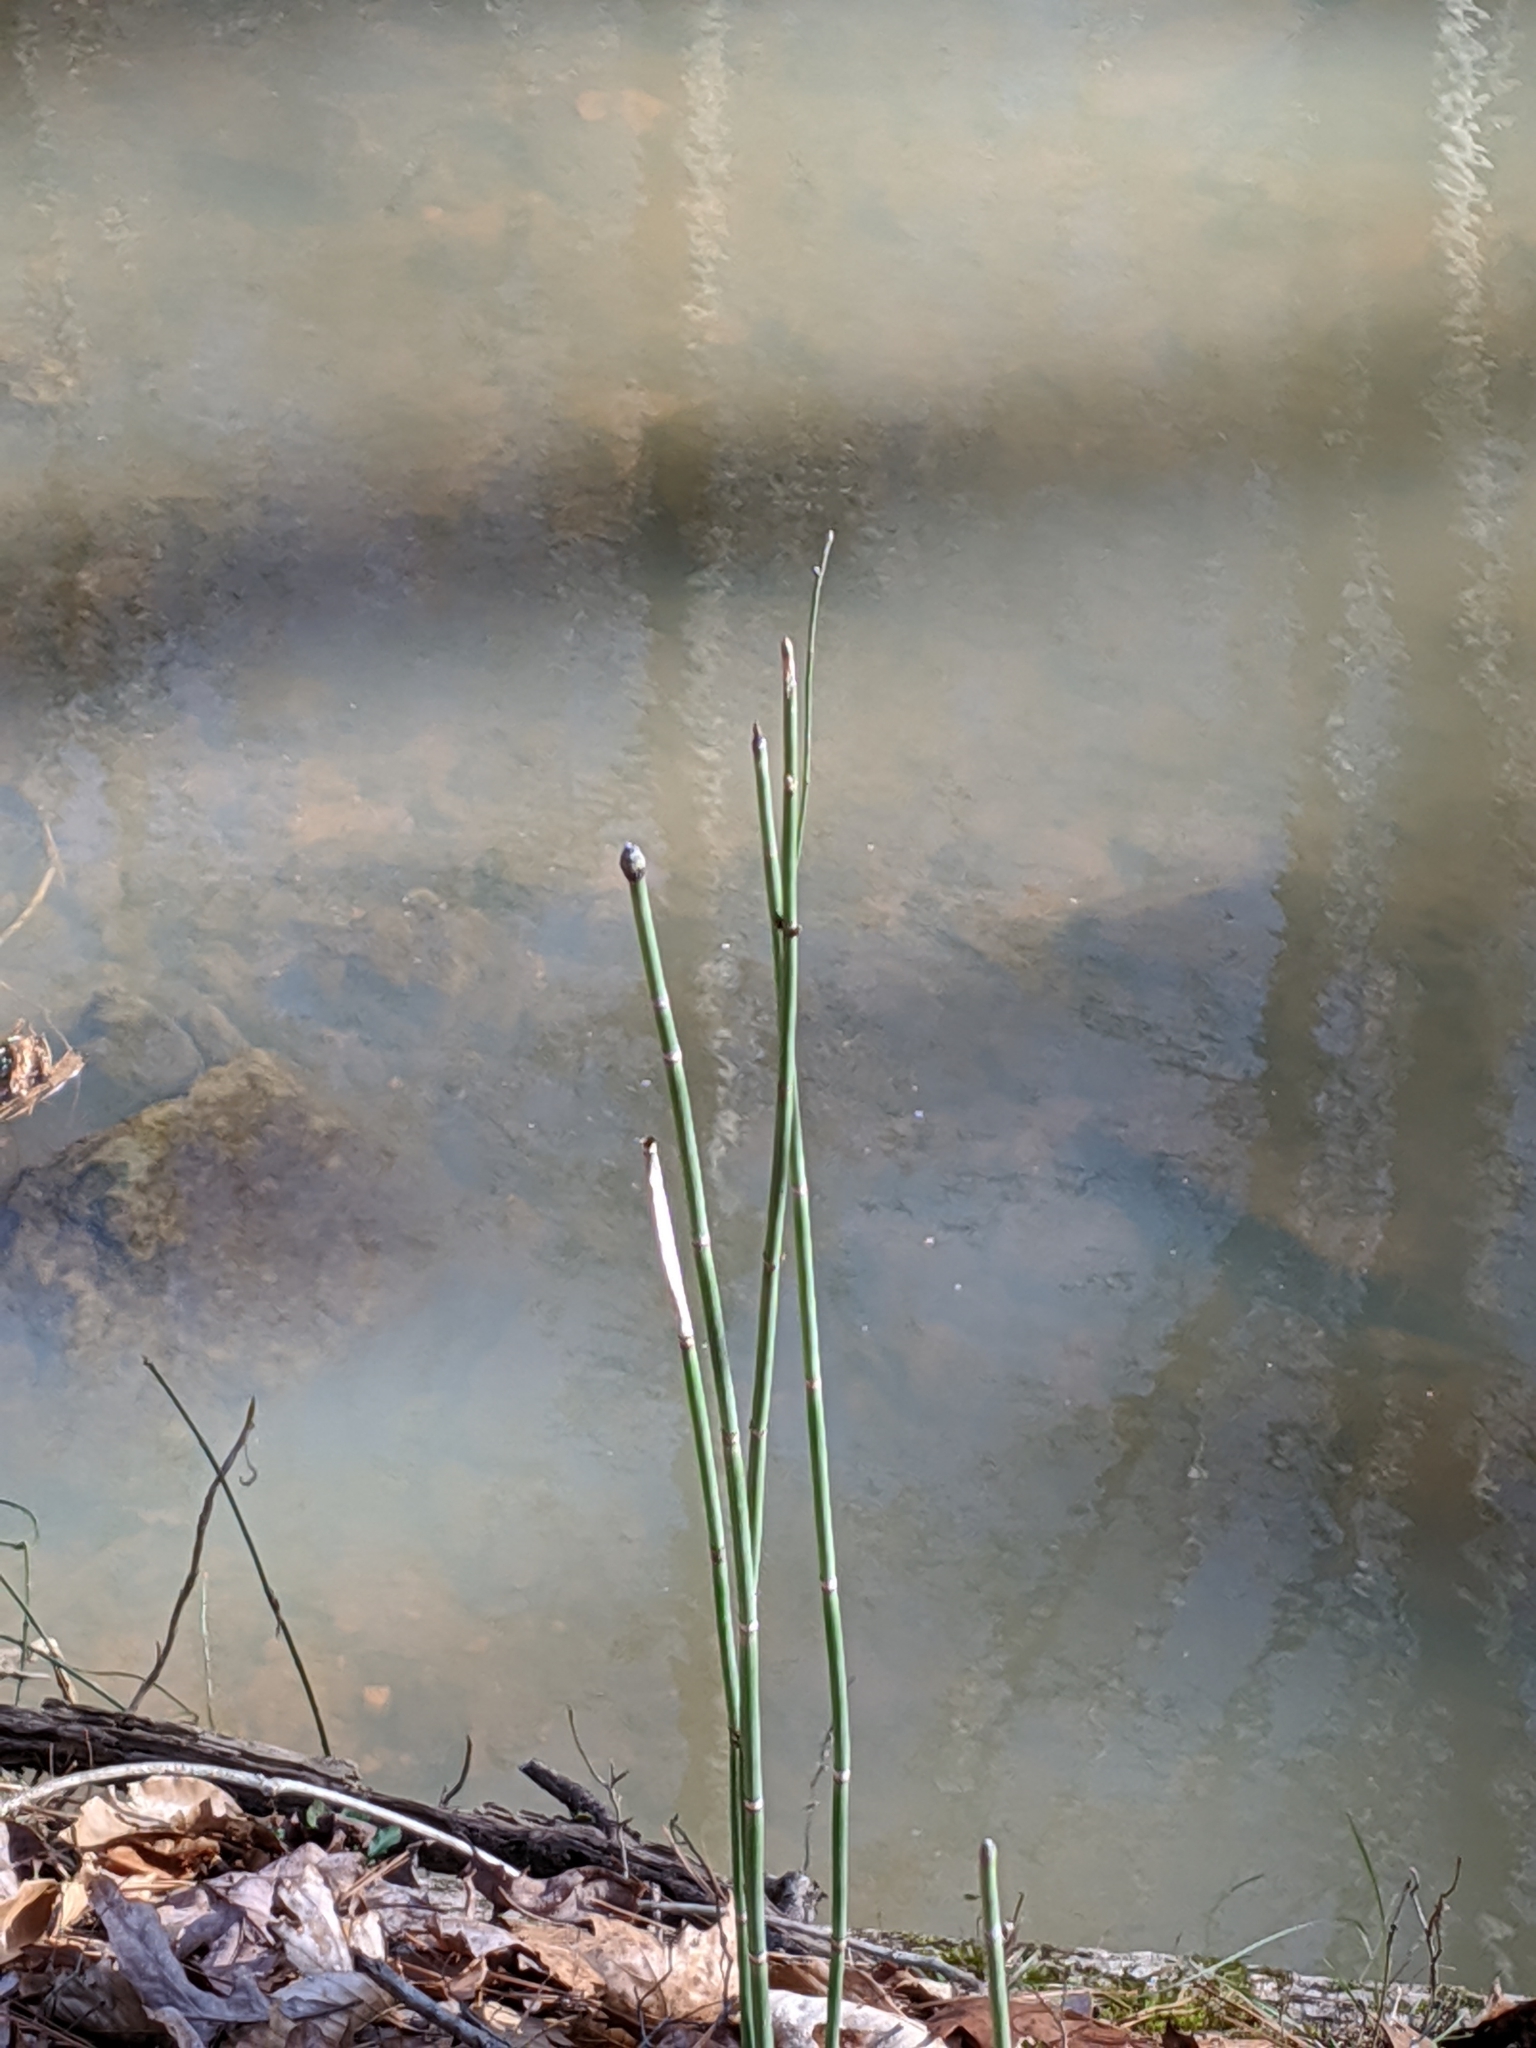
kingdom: Plantae
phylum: Tracheophyta
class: Polypodiopsida
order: Equisetales
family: Equisetaceae
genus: Equisetum
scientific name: Equisetum praealtum
